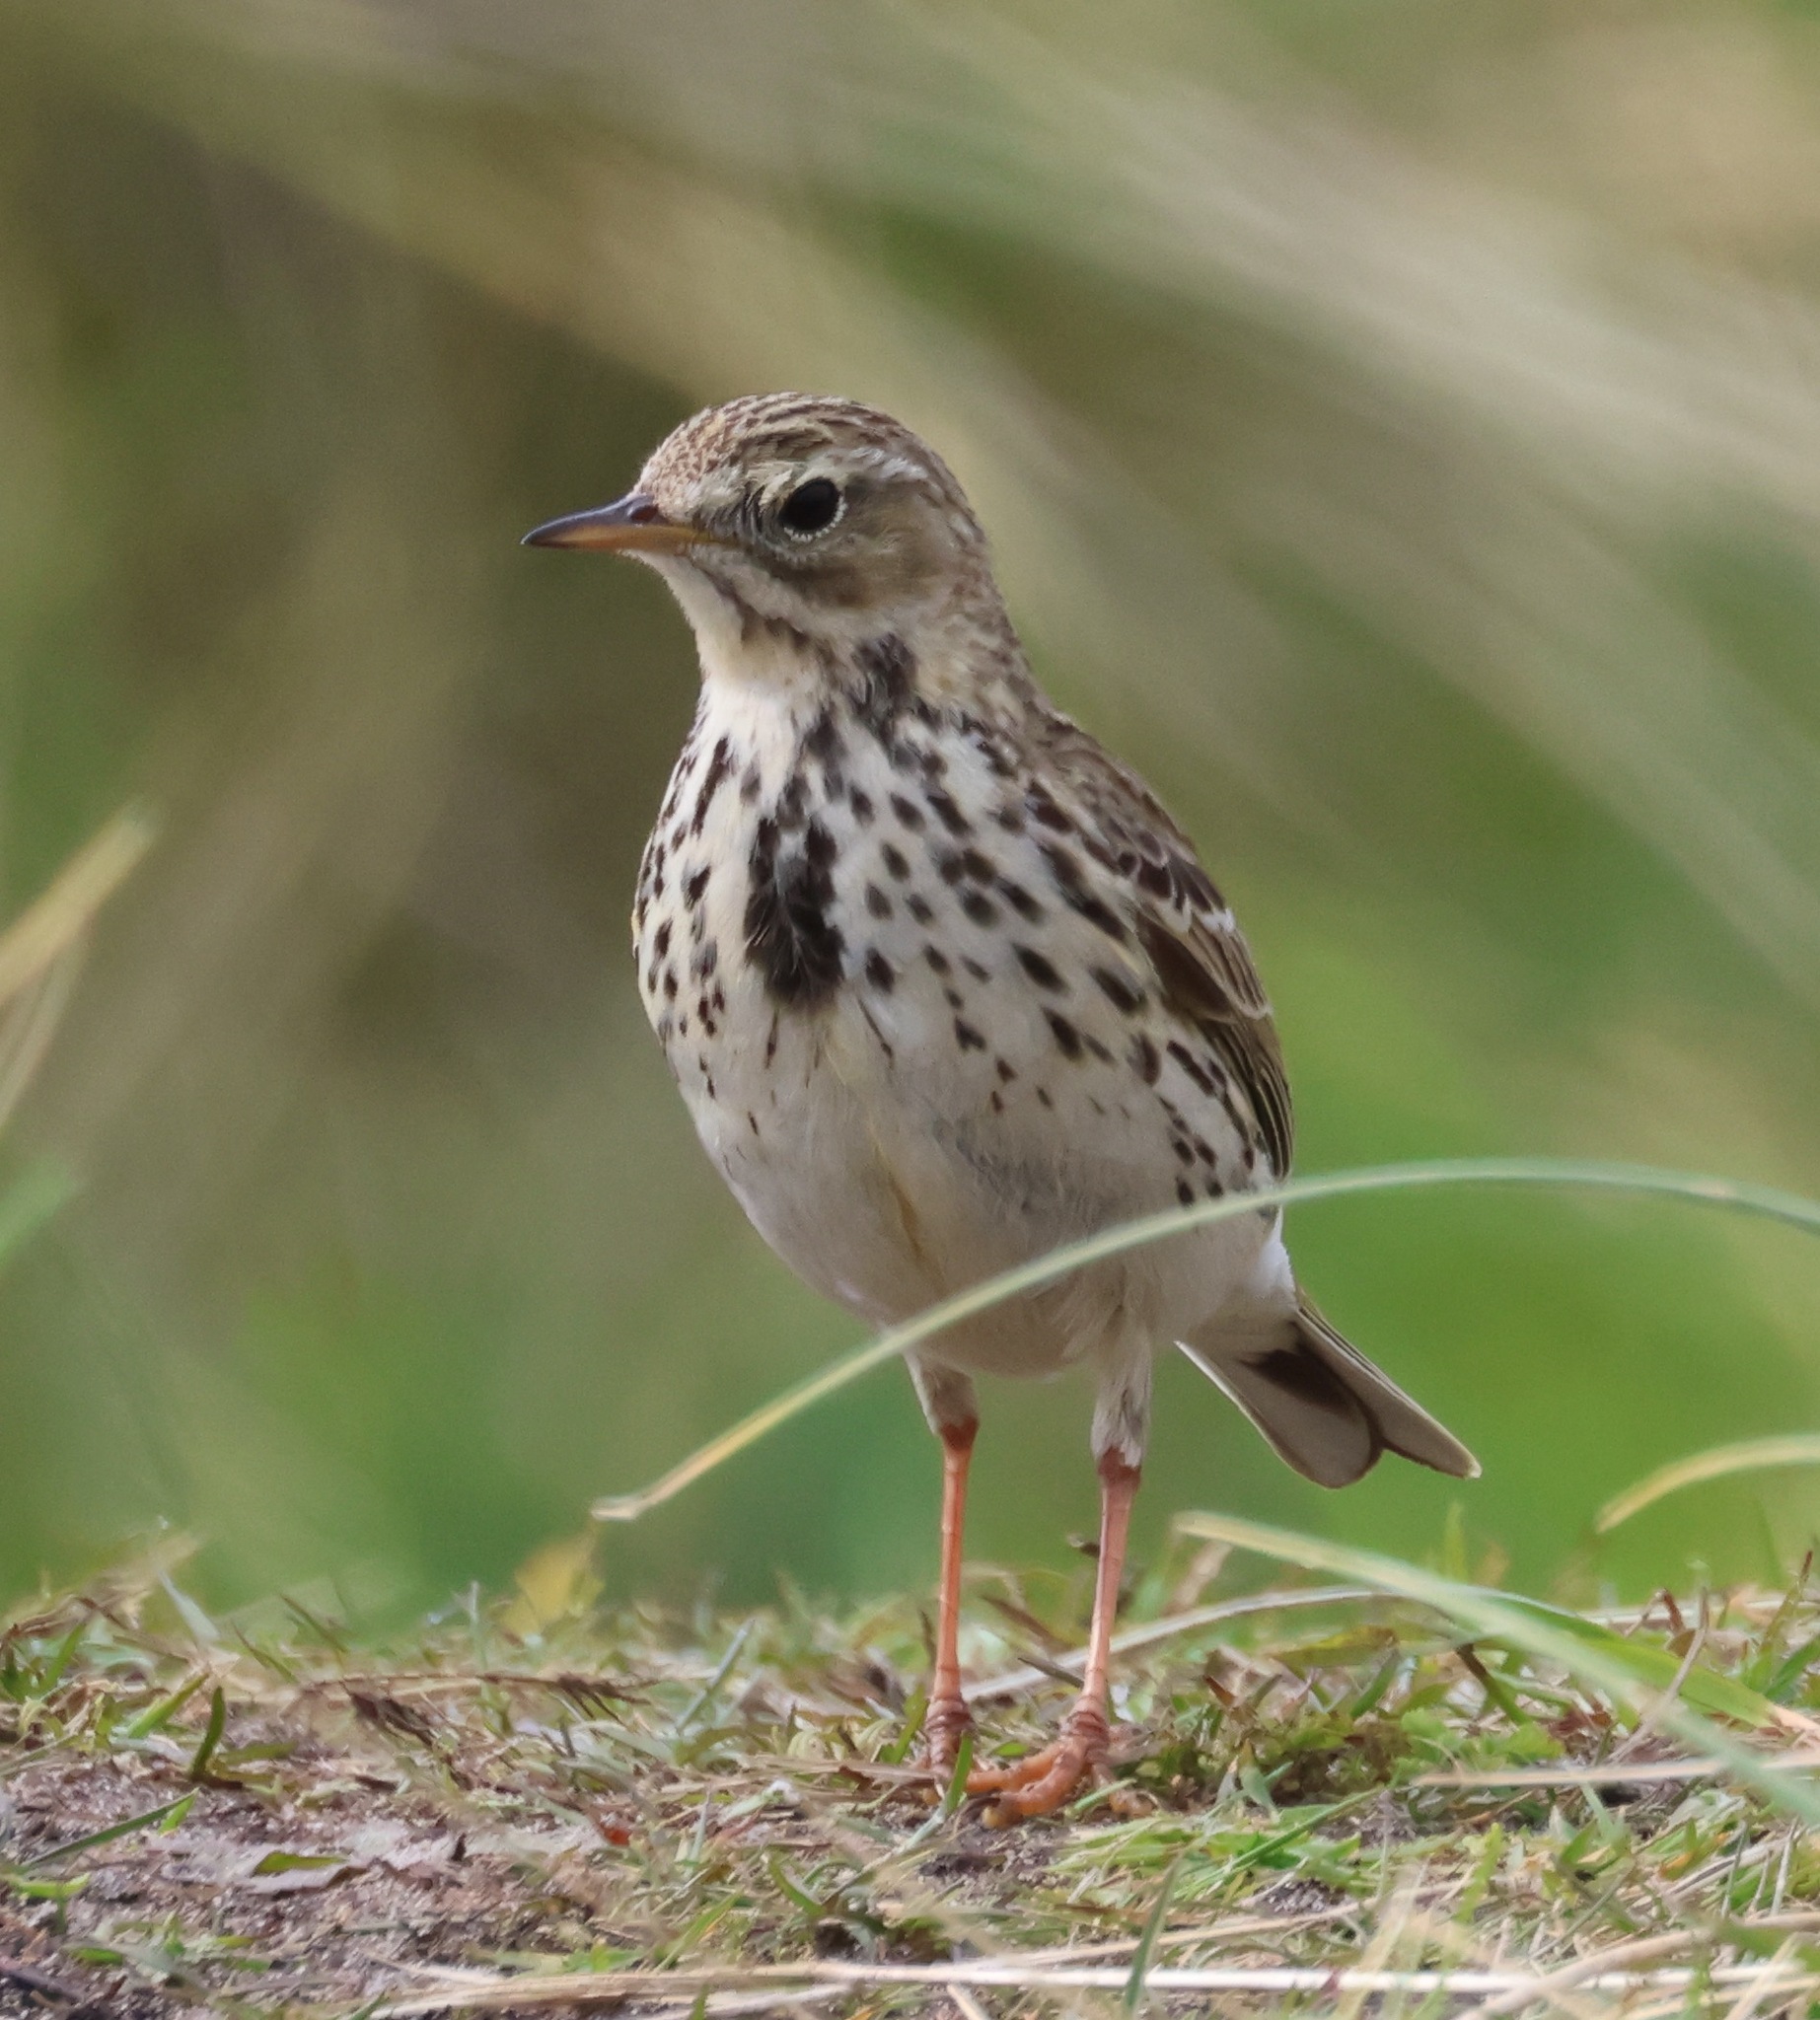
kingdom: Animalia
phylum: Chordata
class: Aves
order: Passeriformes
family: Motacillidae
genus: Anthus
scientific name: Anthus pratensis
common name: Meadow pipit
